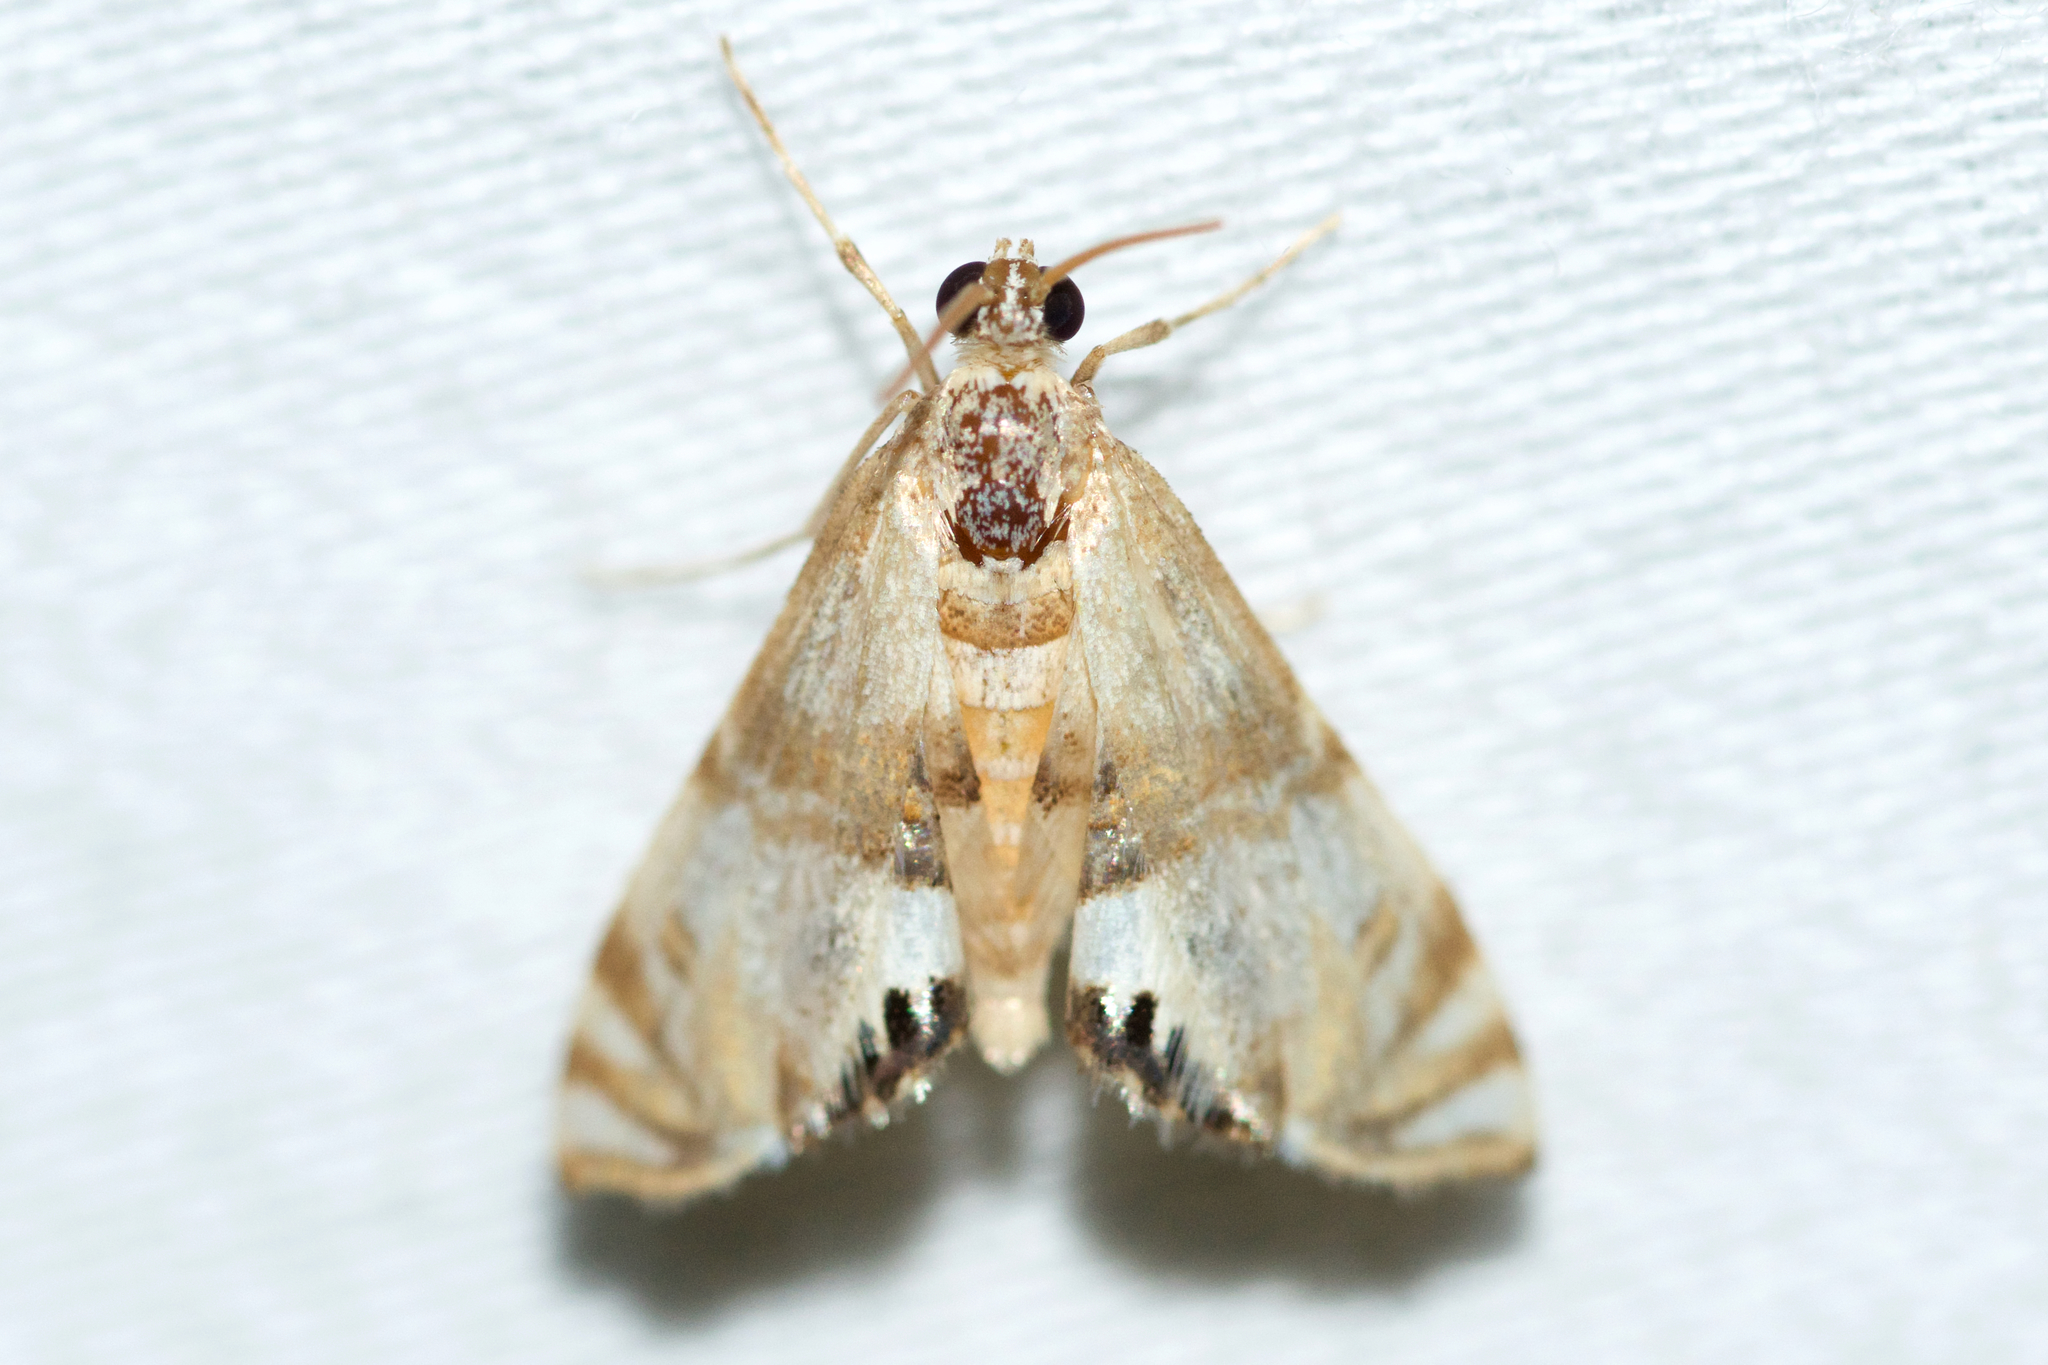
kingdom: Animalia
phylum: Arthropoda
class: Insecta
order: Lepidoptera
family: Crambidae
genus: Petrophila
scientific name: Petrophila bifascialis
